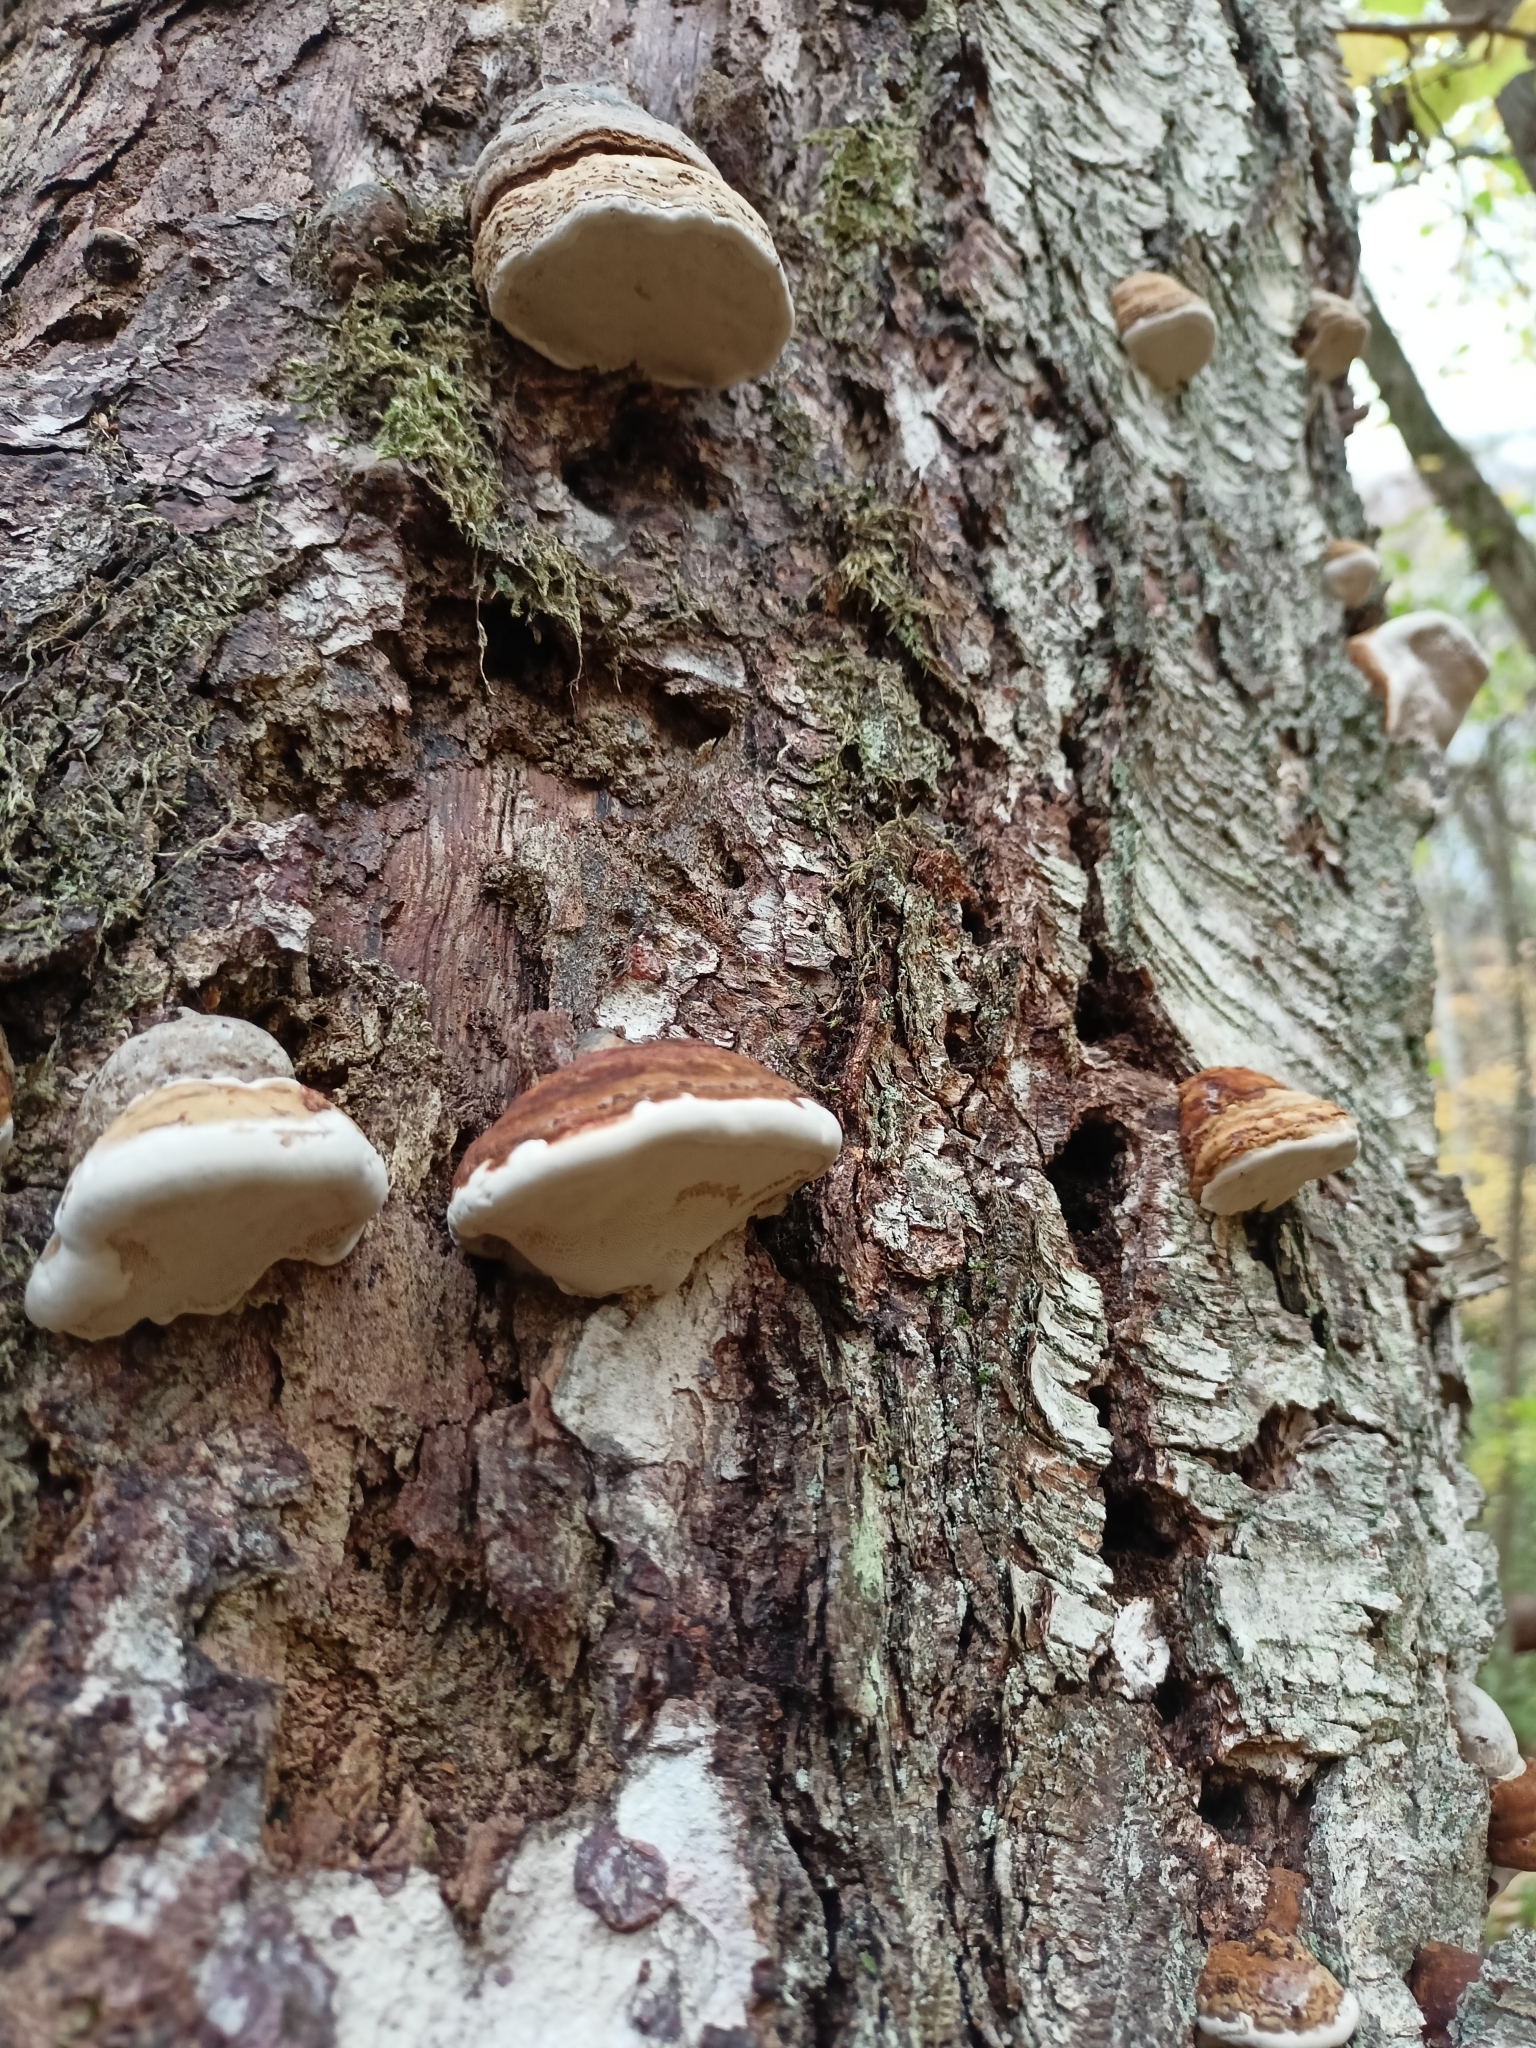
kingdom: Fungi
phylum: Basidiomycota
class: Agaricomycetes
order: Polyporales
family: Fomitopsidaceae
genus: Fomitopsis
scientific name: Fomitopsis pinicola
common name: Red-belted bracket
